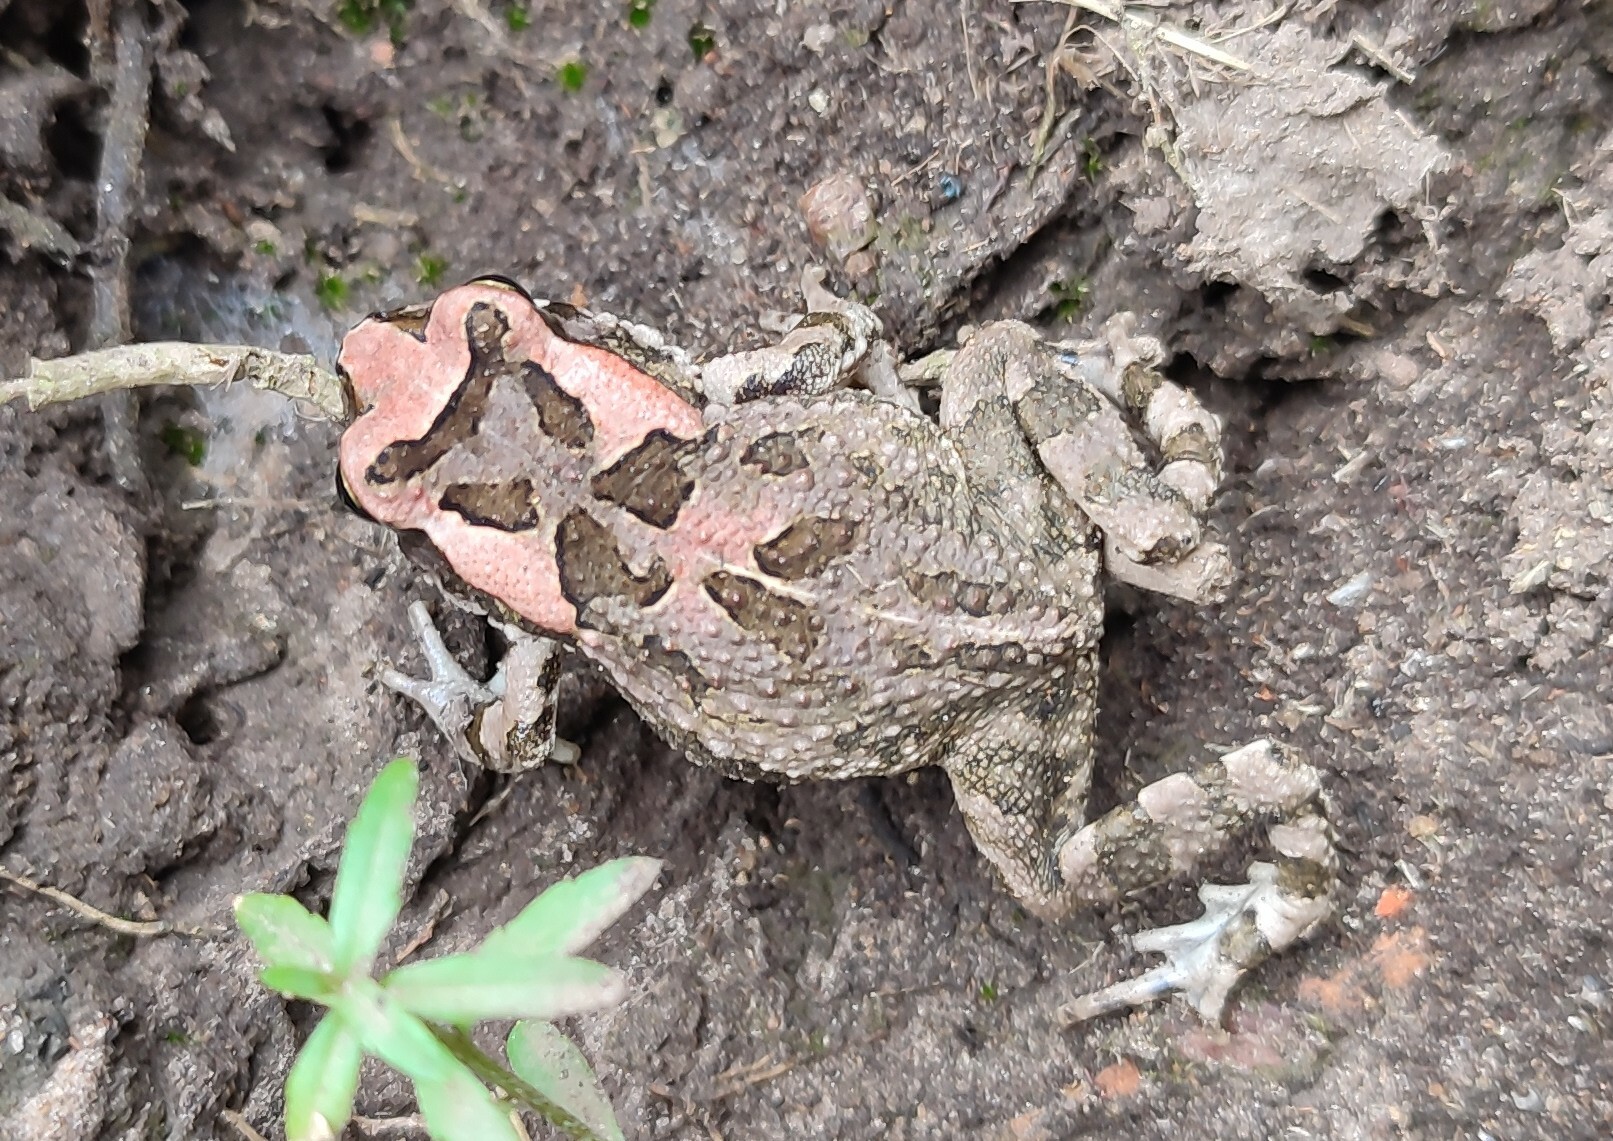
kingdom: Animalia
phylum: Chordata
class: Amphibia
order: Anura
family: Bufonidae
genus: Sclerophrys
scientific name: Sclerophrys capensis
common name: Ranger’s toad
